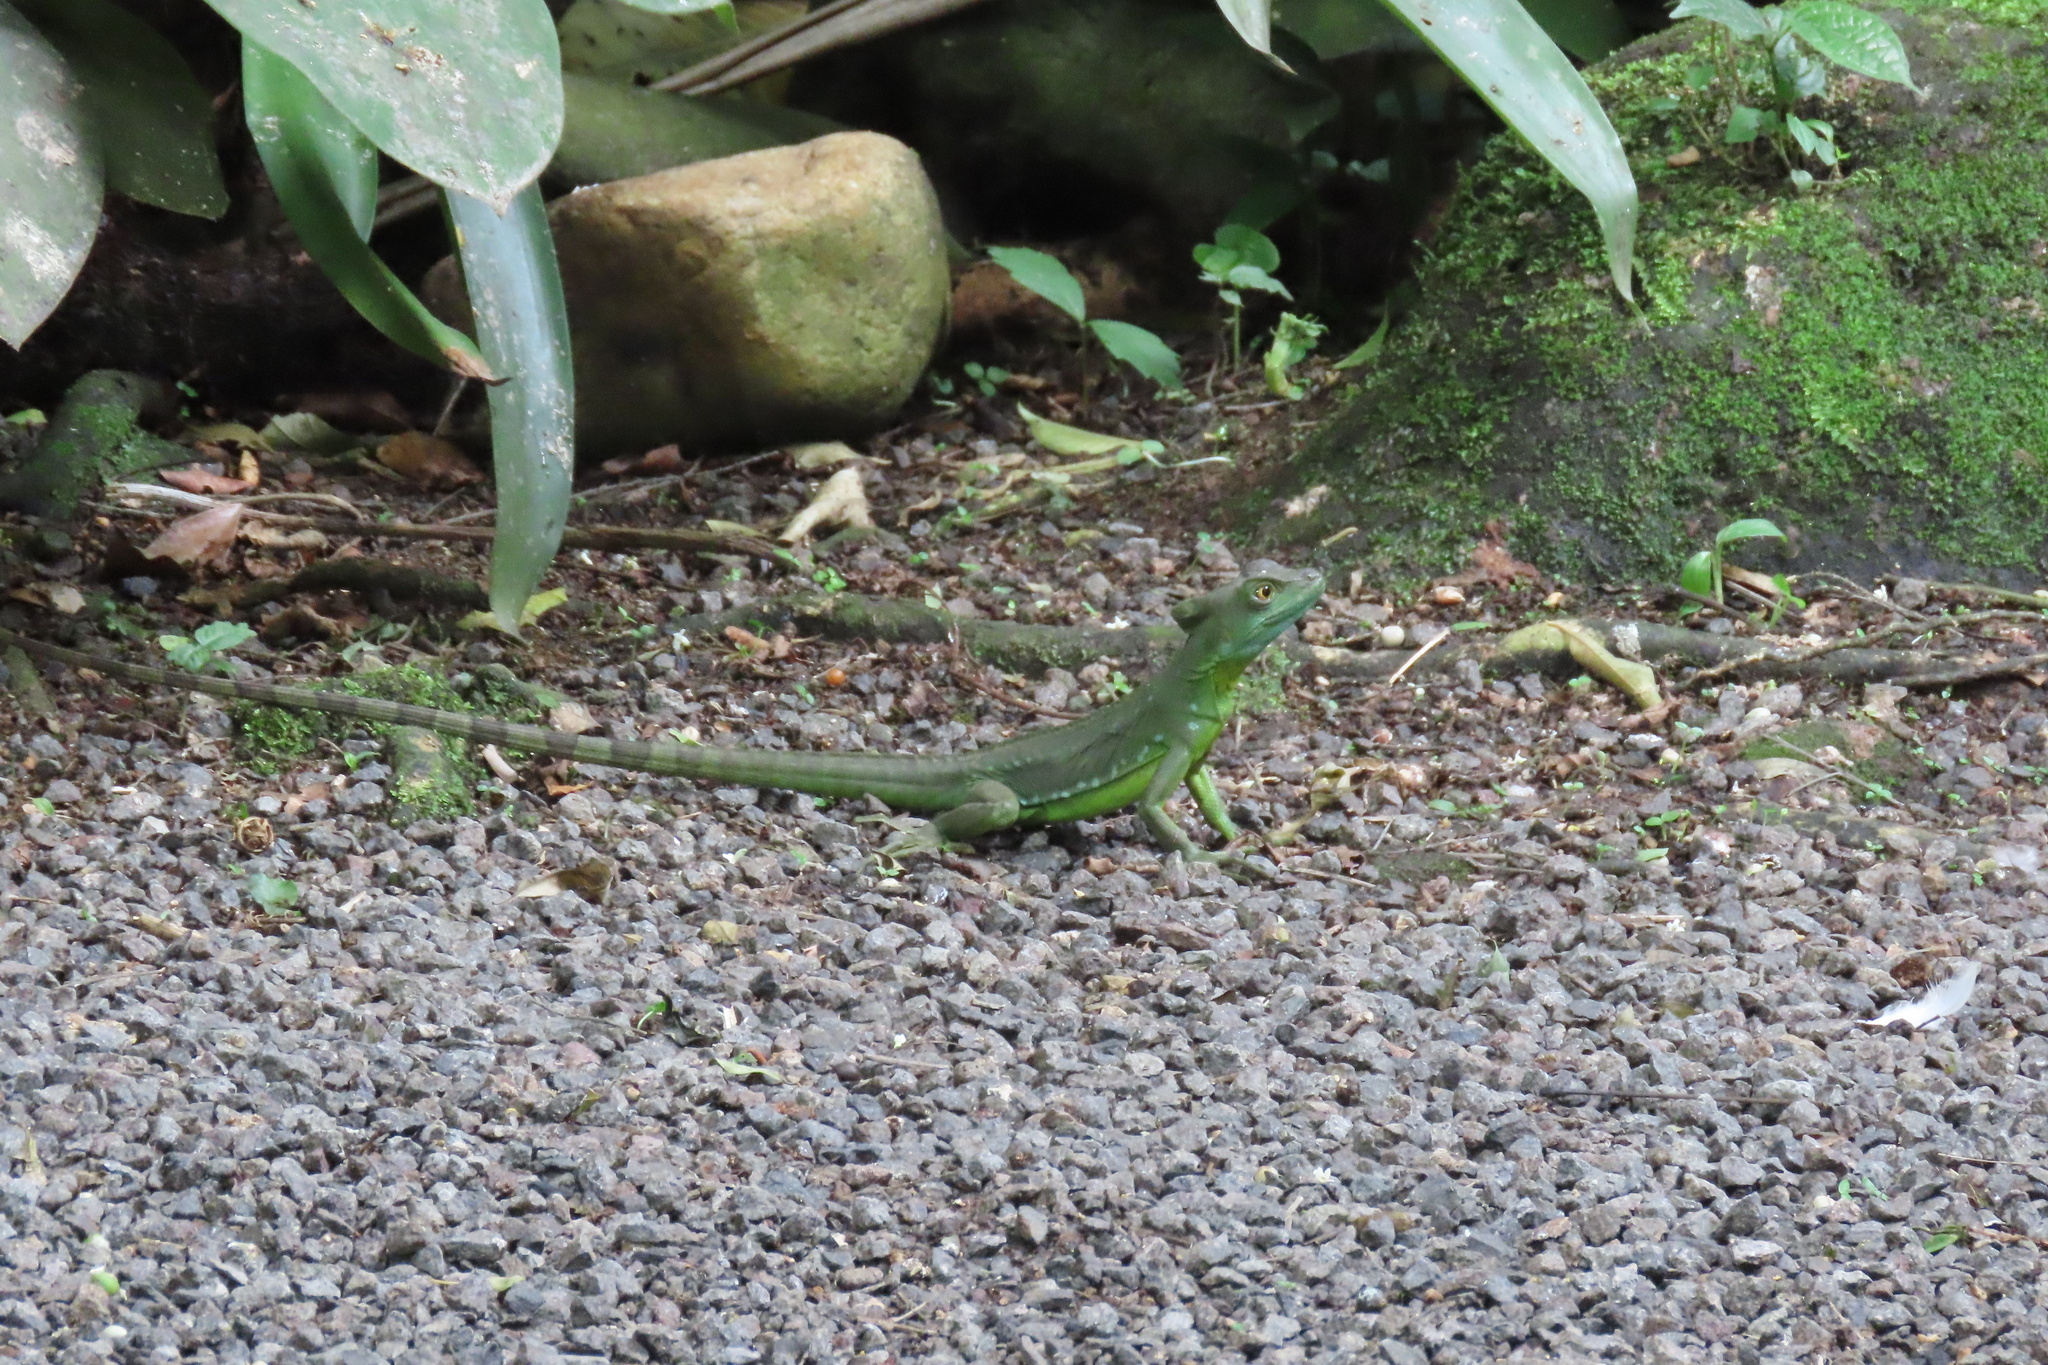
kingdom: Animalia
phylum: Chordata
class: Squamata
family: Corytophanidae
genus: Basiliscus
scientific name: Basiliscus plumifrons
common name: Green basilisk
